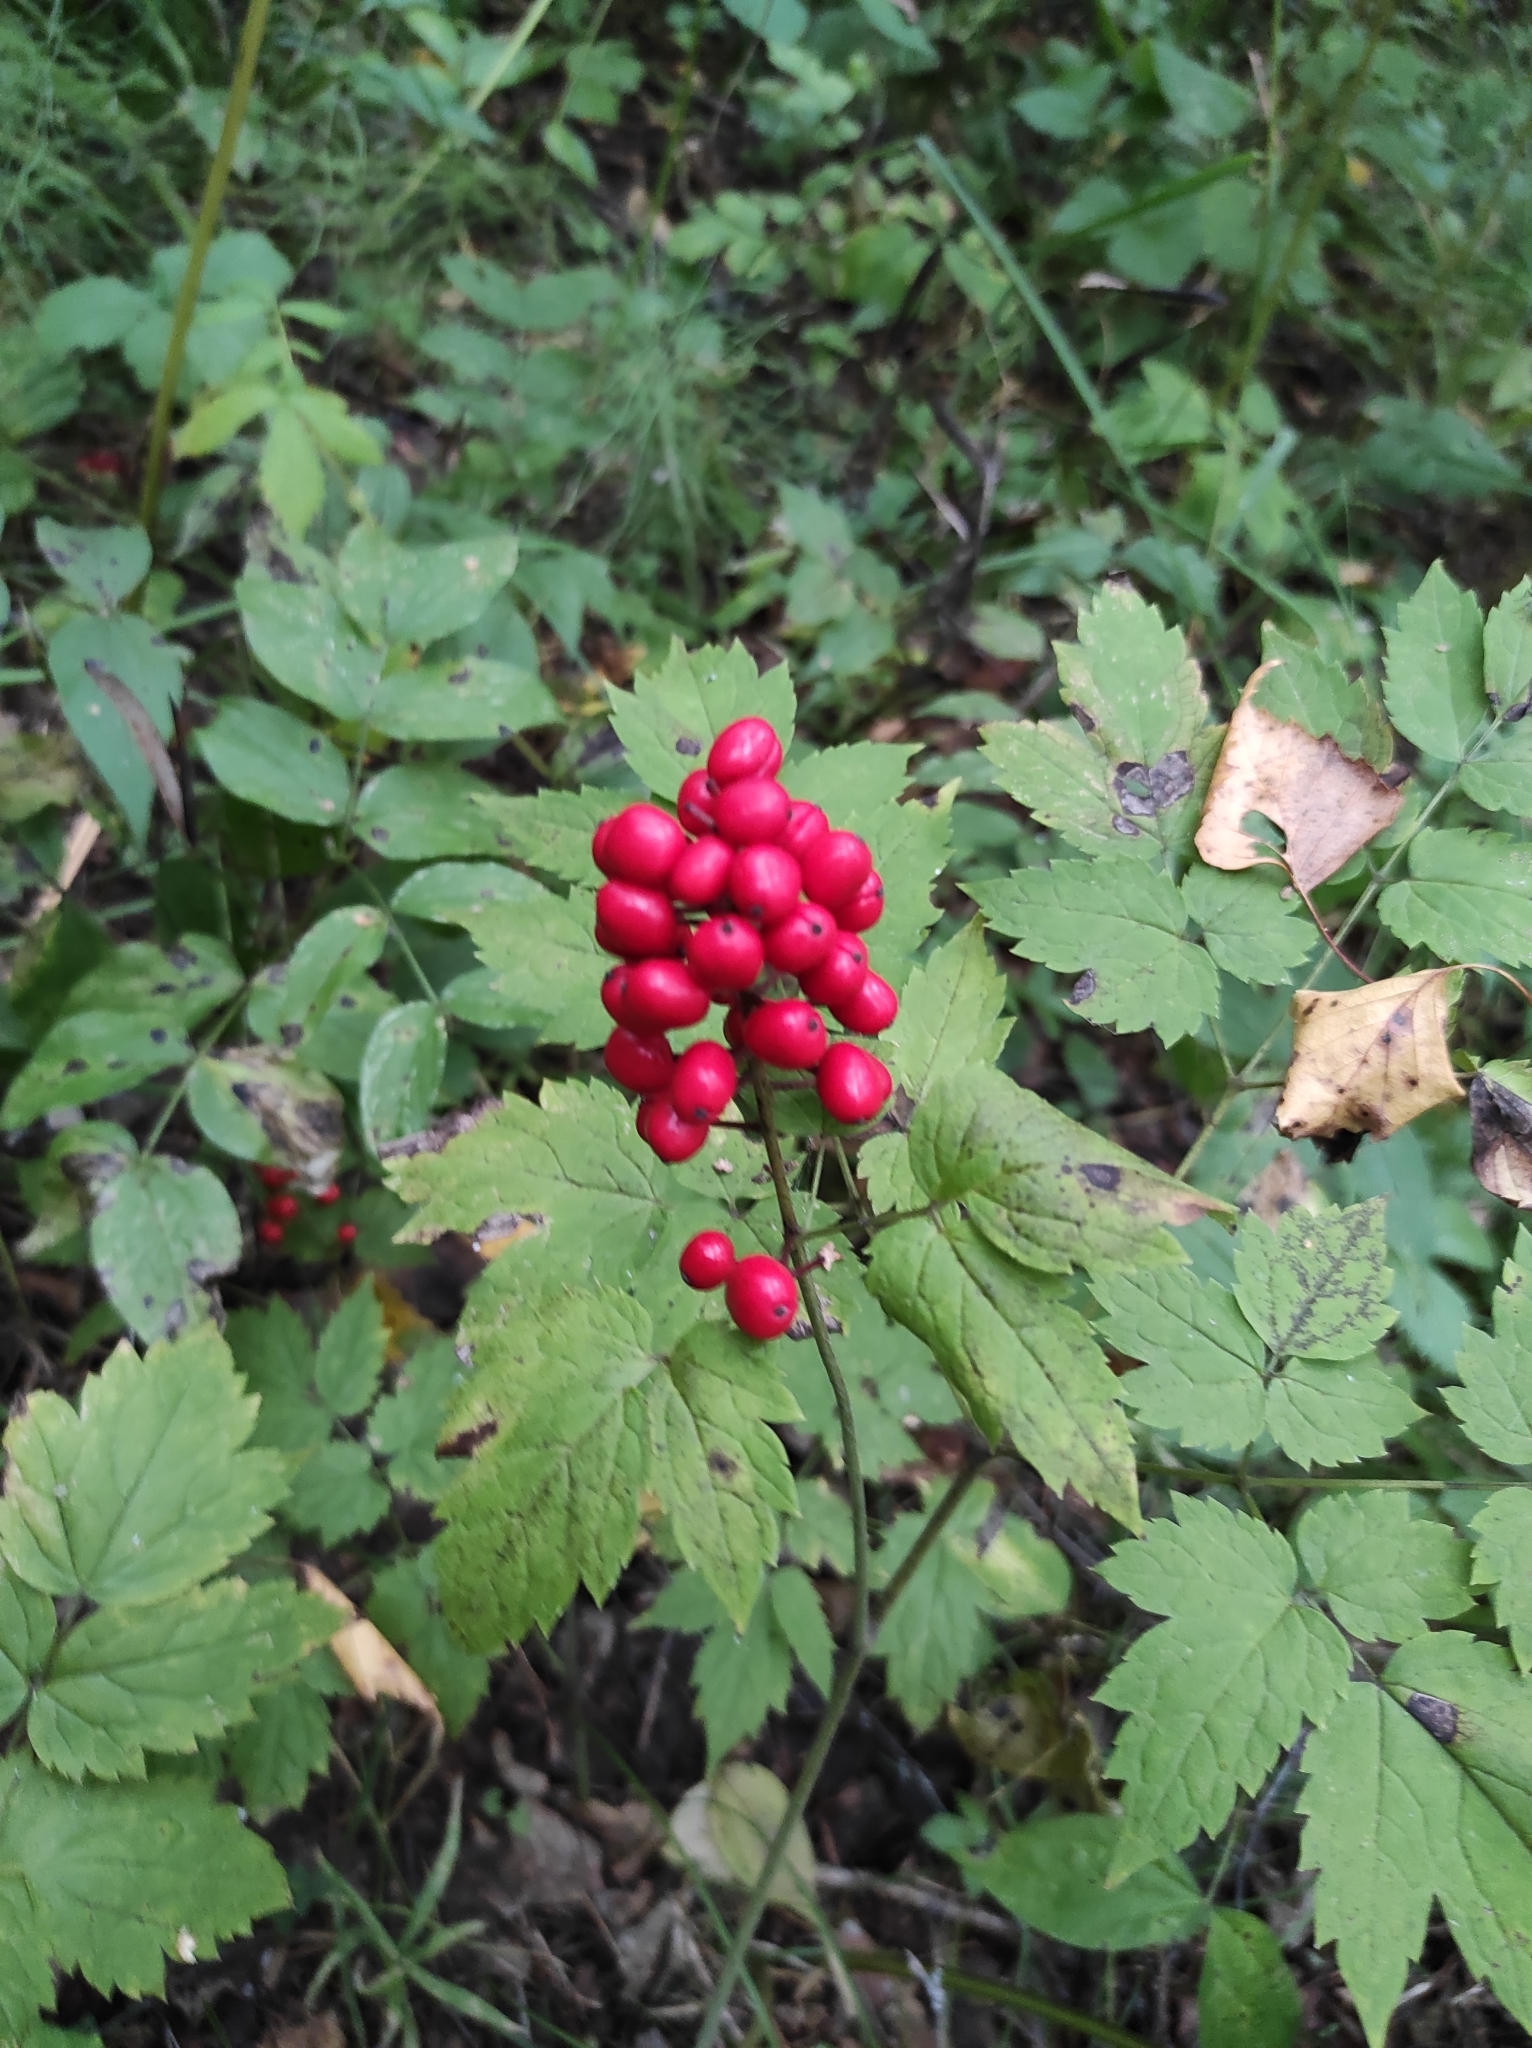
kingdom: Plantae
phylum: Tracheophyta
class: Magnoliopsida
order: Ranunculales
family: Ranunculaceae
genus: Actaea
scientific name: Actaea erythrocarpa
